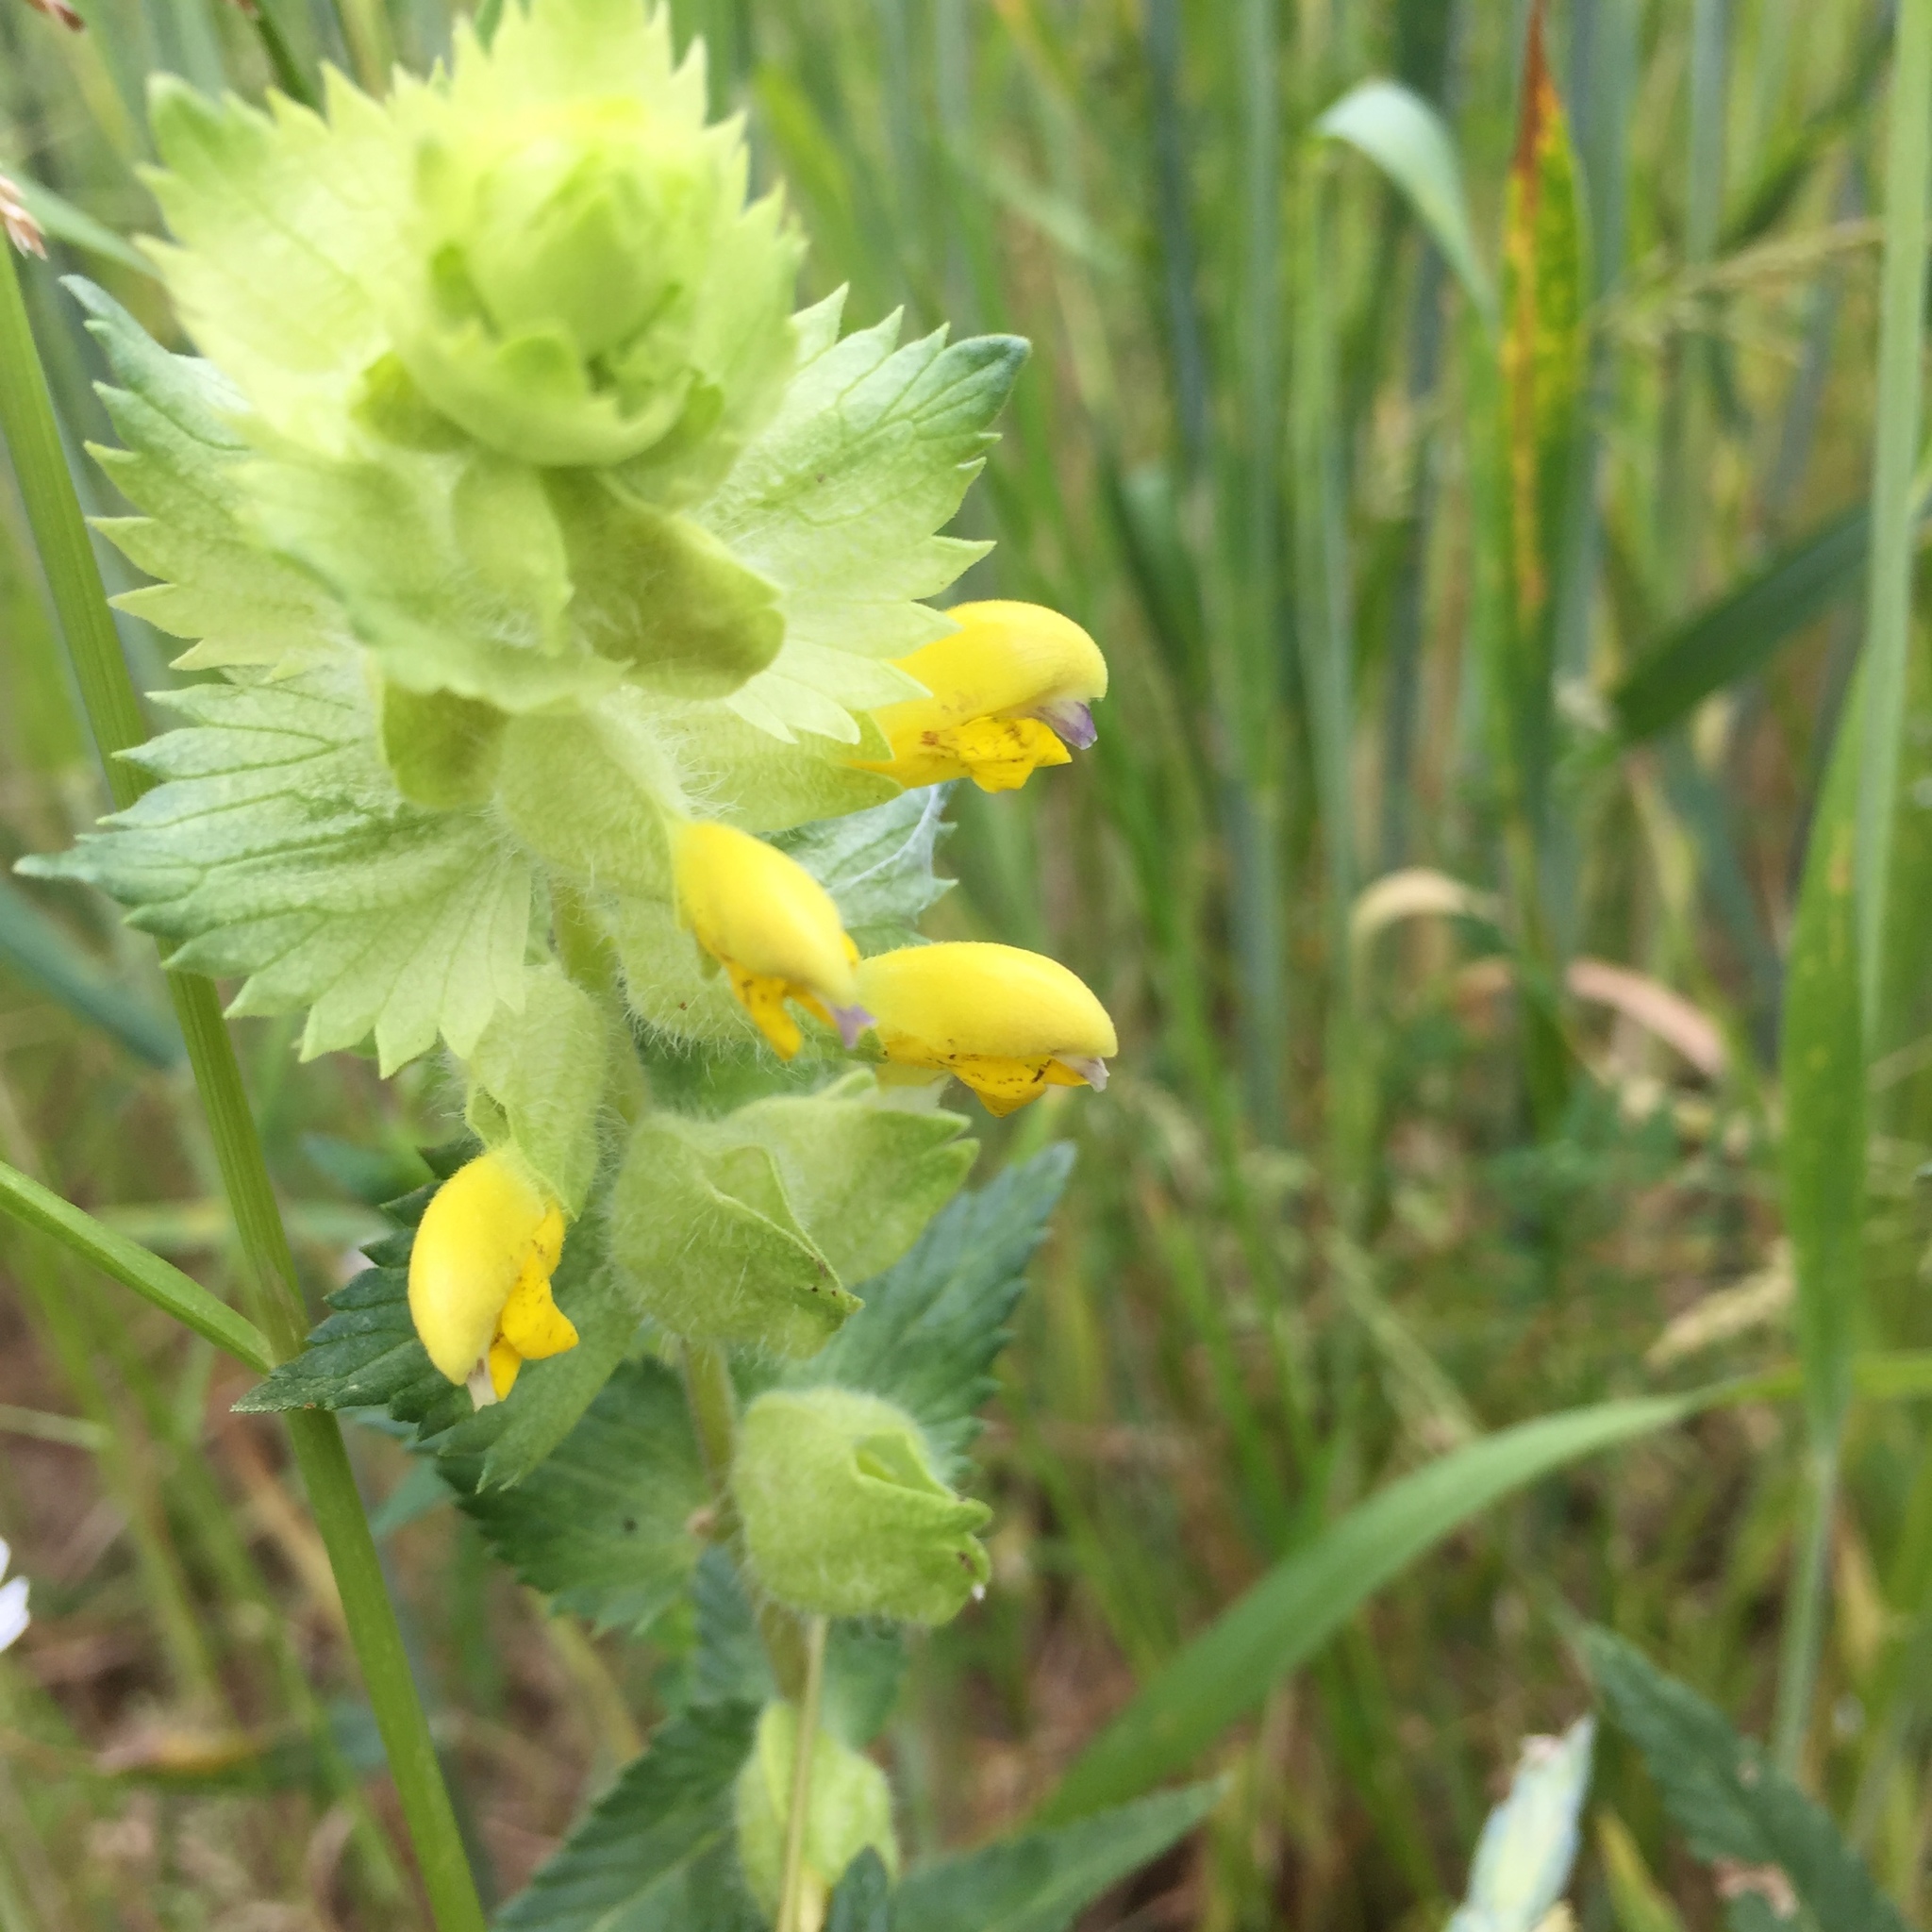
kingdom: Plantae
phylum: Tracheophyta
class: Magnoliopsida
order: Lamiales
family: Orobanchaceae
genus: Rhinanthus
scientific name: Rhinanthus alectorolophus
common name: Greater yellow-rattle
